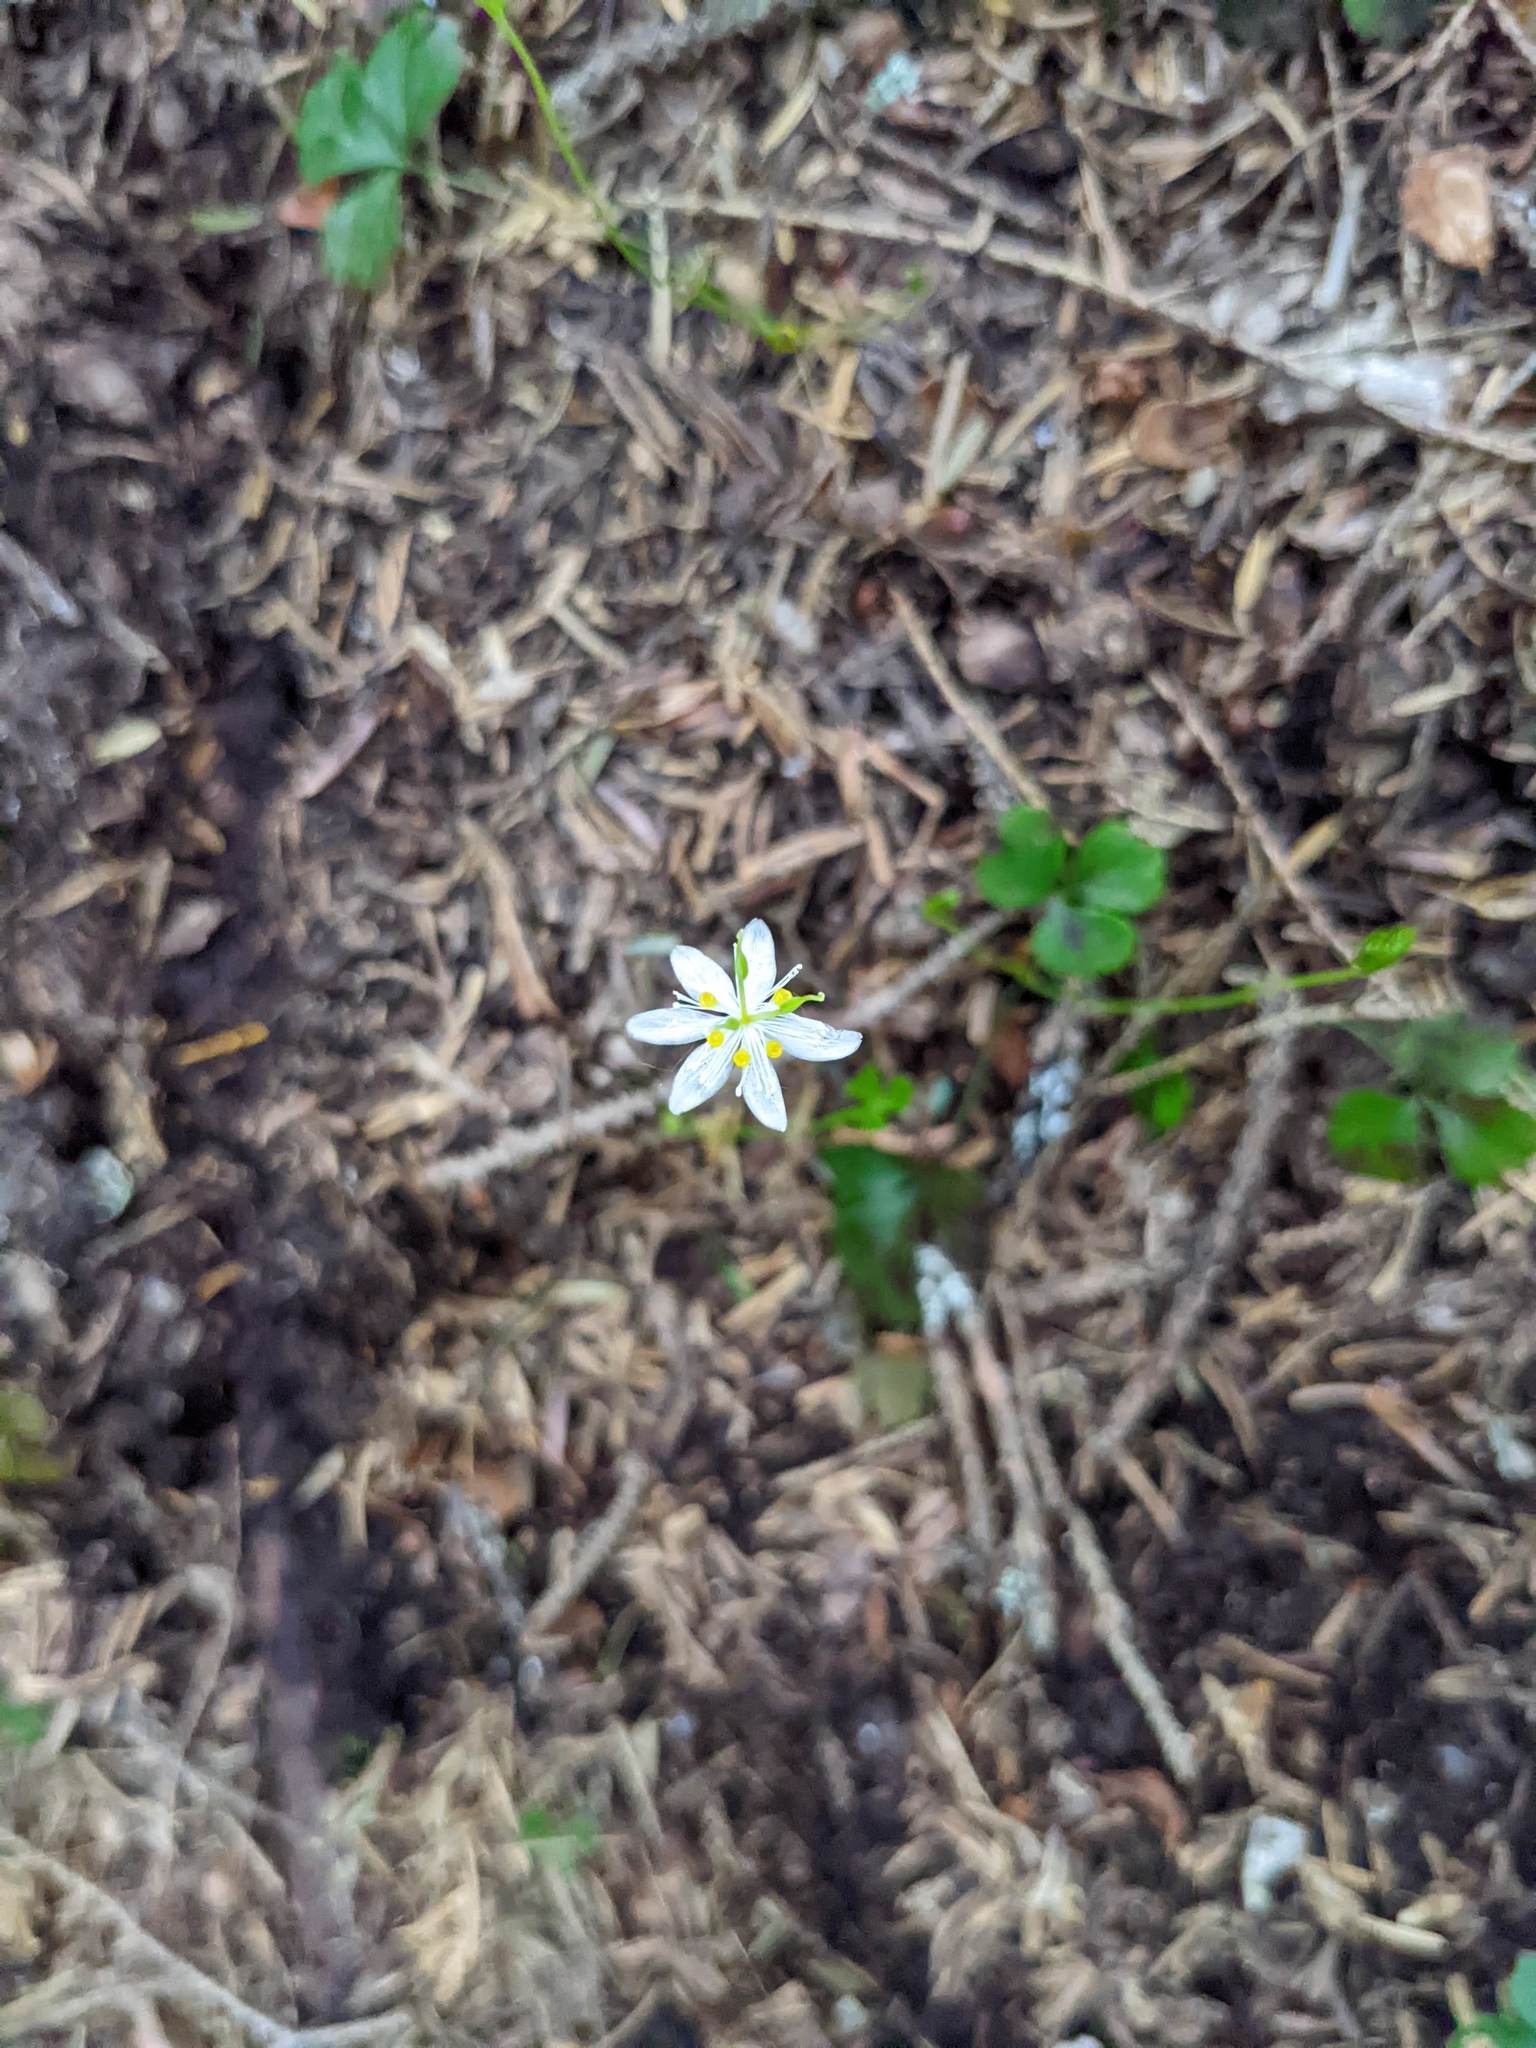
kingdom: Plantae
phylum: Tracheophyta
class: Magnoliopsida
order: Ranunculales
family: Ranunculaceae
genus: Coptis
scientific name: Coptis trifolia
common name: Canker-root
